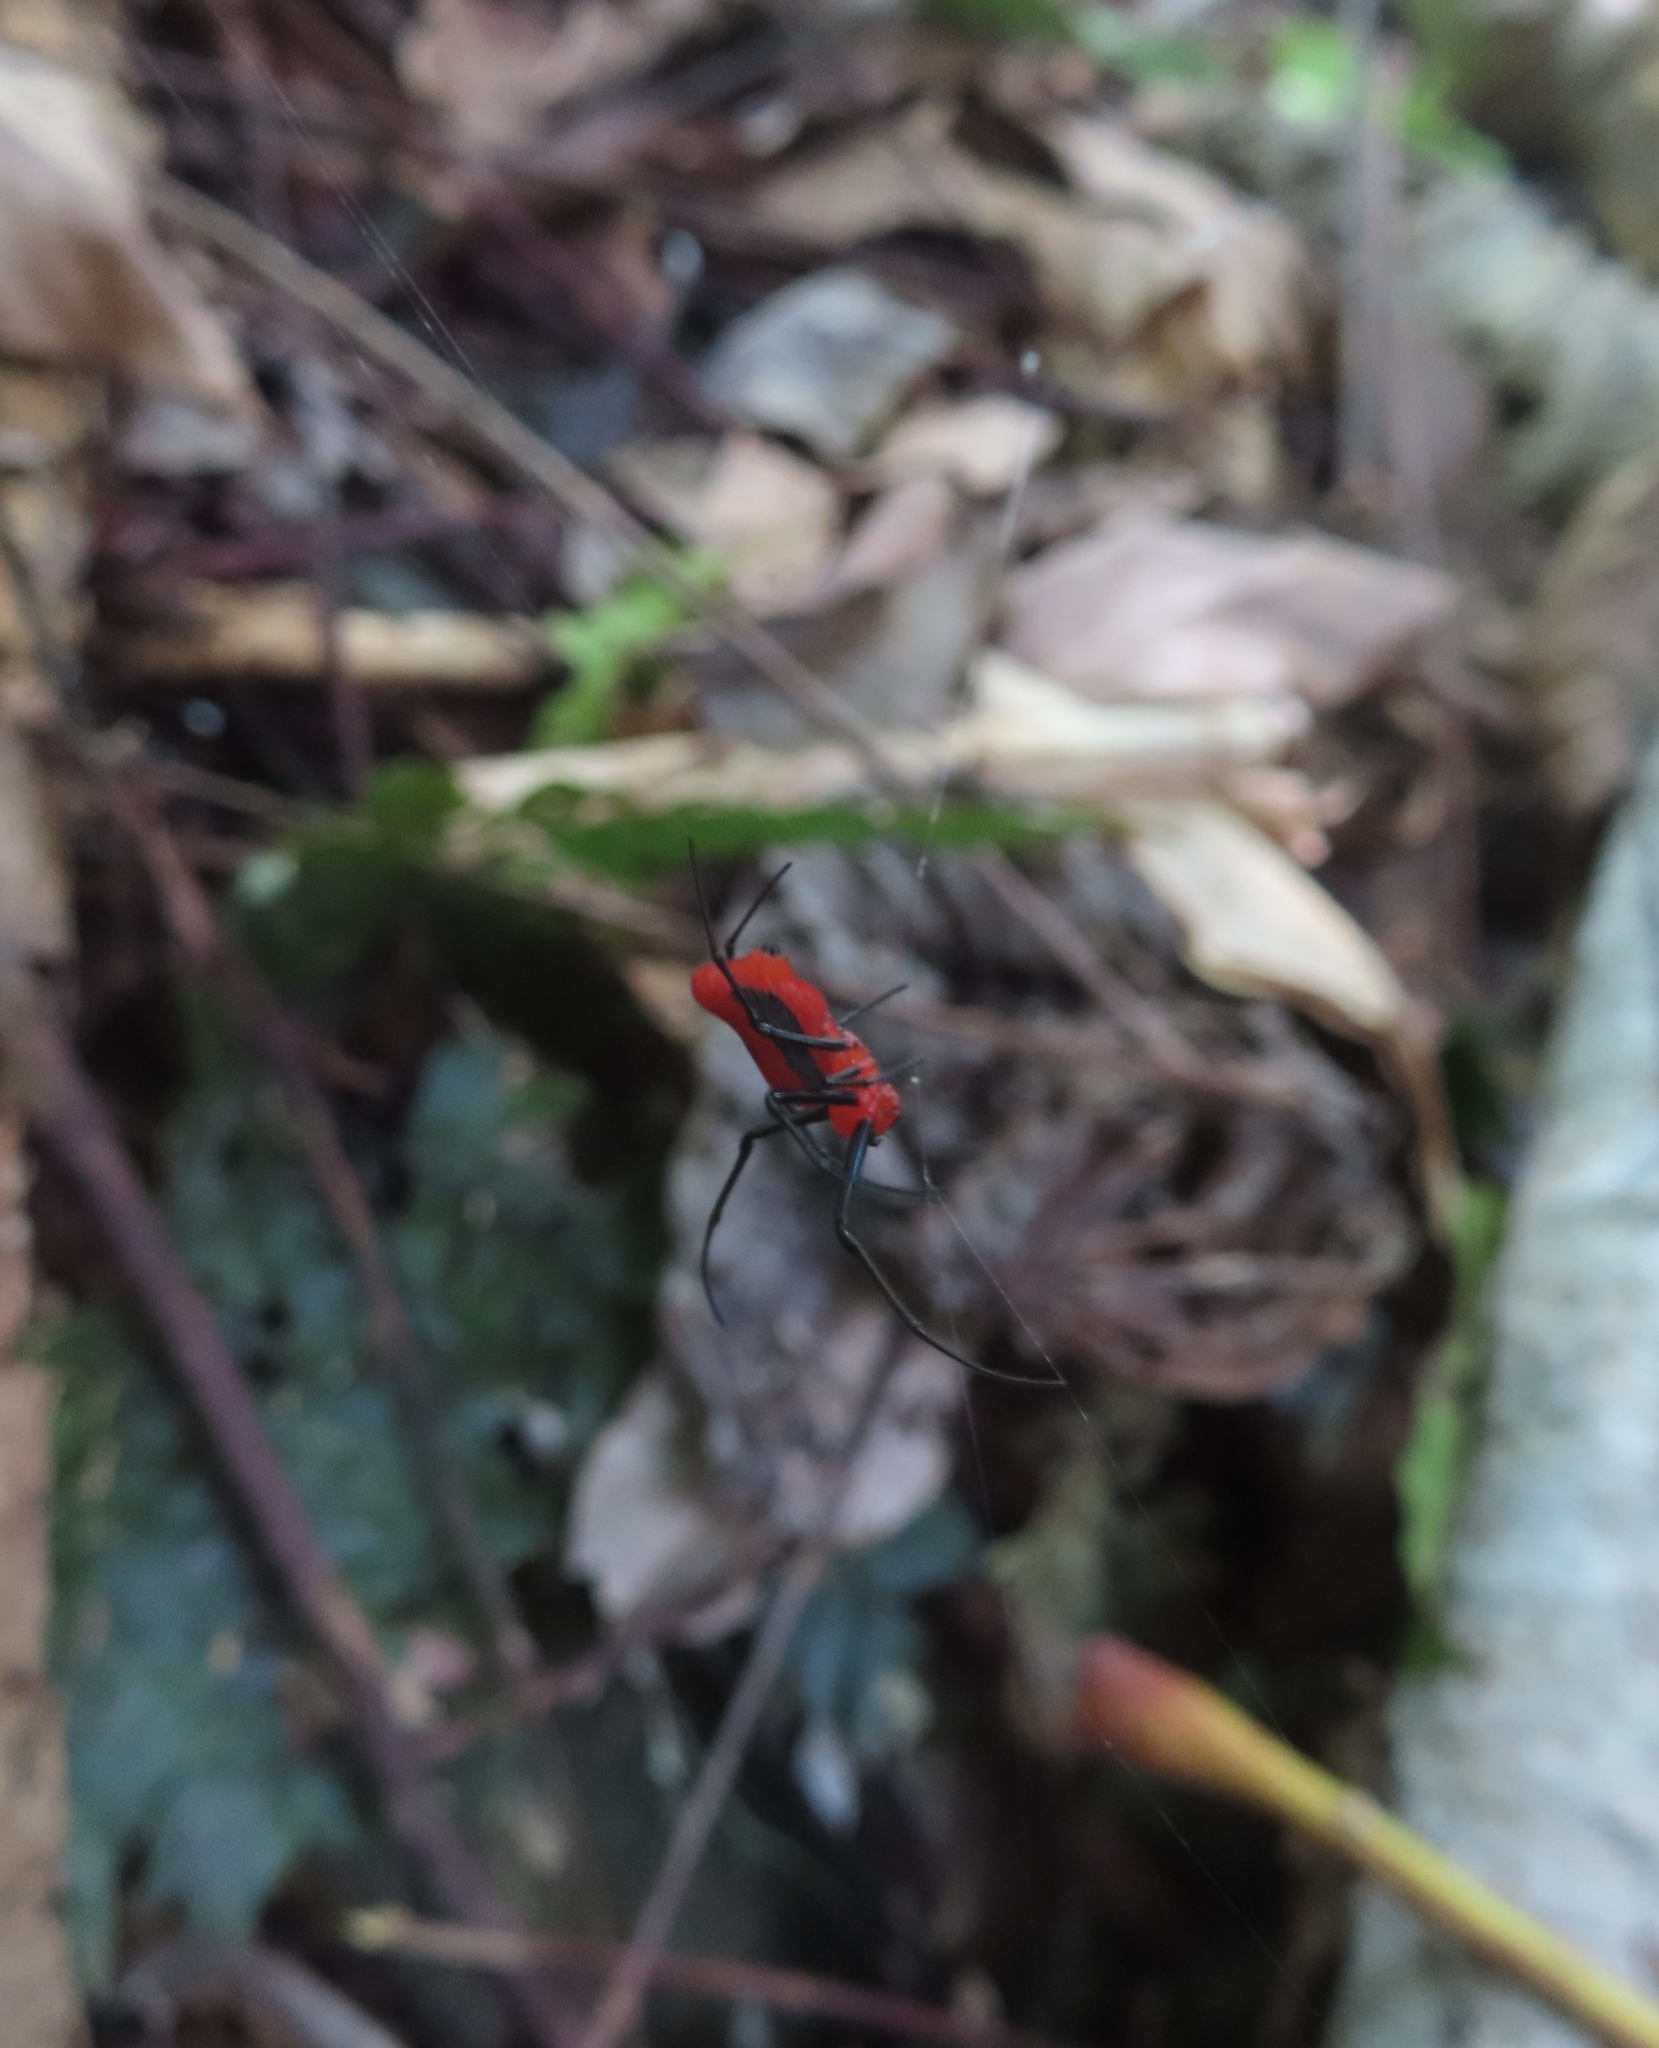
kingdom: Animalia
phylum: Arthropoda
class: Arachnida
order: Araneae
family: Tetragnathidae
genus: Leucauge
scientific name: Leucauge licina
